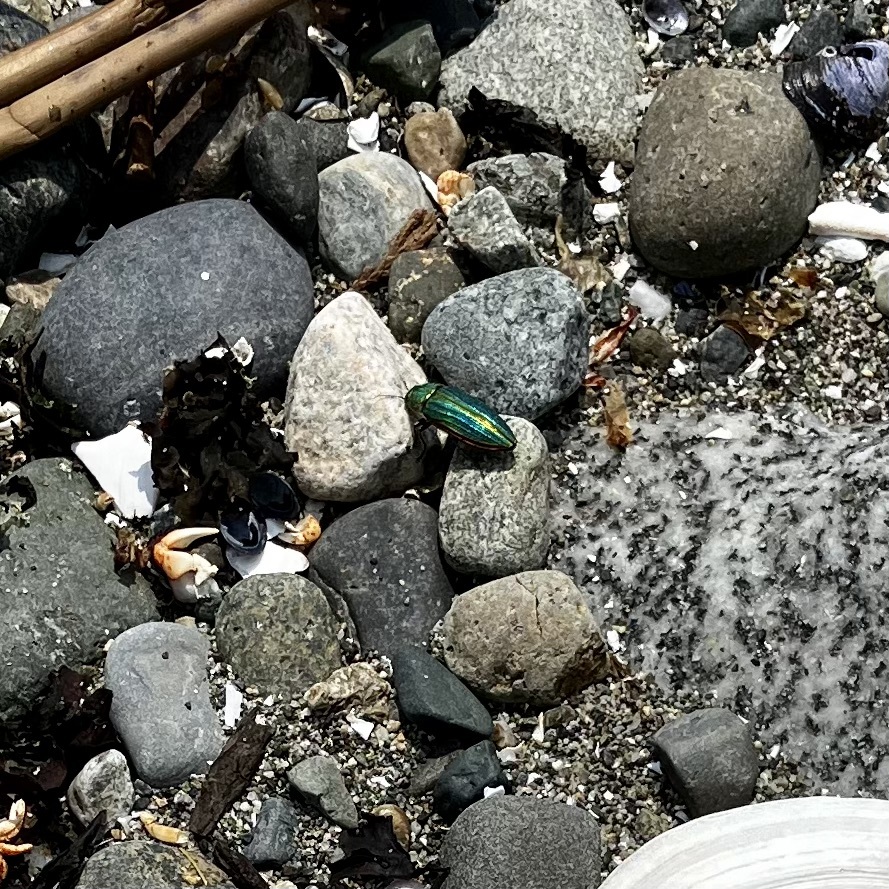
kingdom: Animalia
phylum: Arthropoda
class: Insecta
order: Coleoptera
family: Buprestidae
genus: Buprestis
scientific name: Buprestis aurulenta
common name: Golden buprestid
